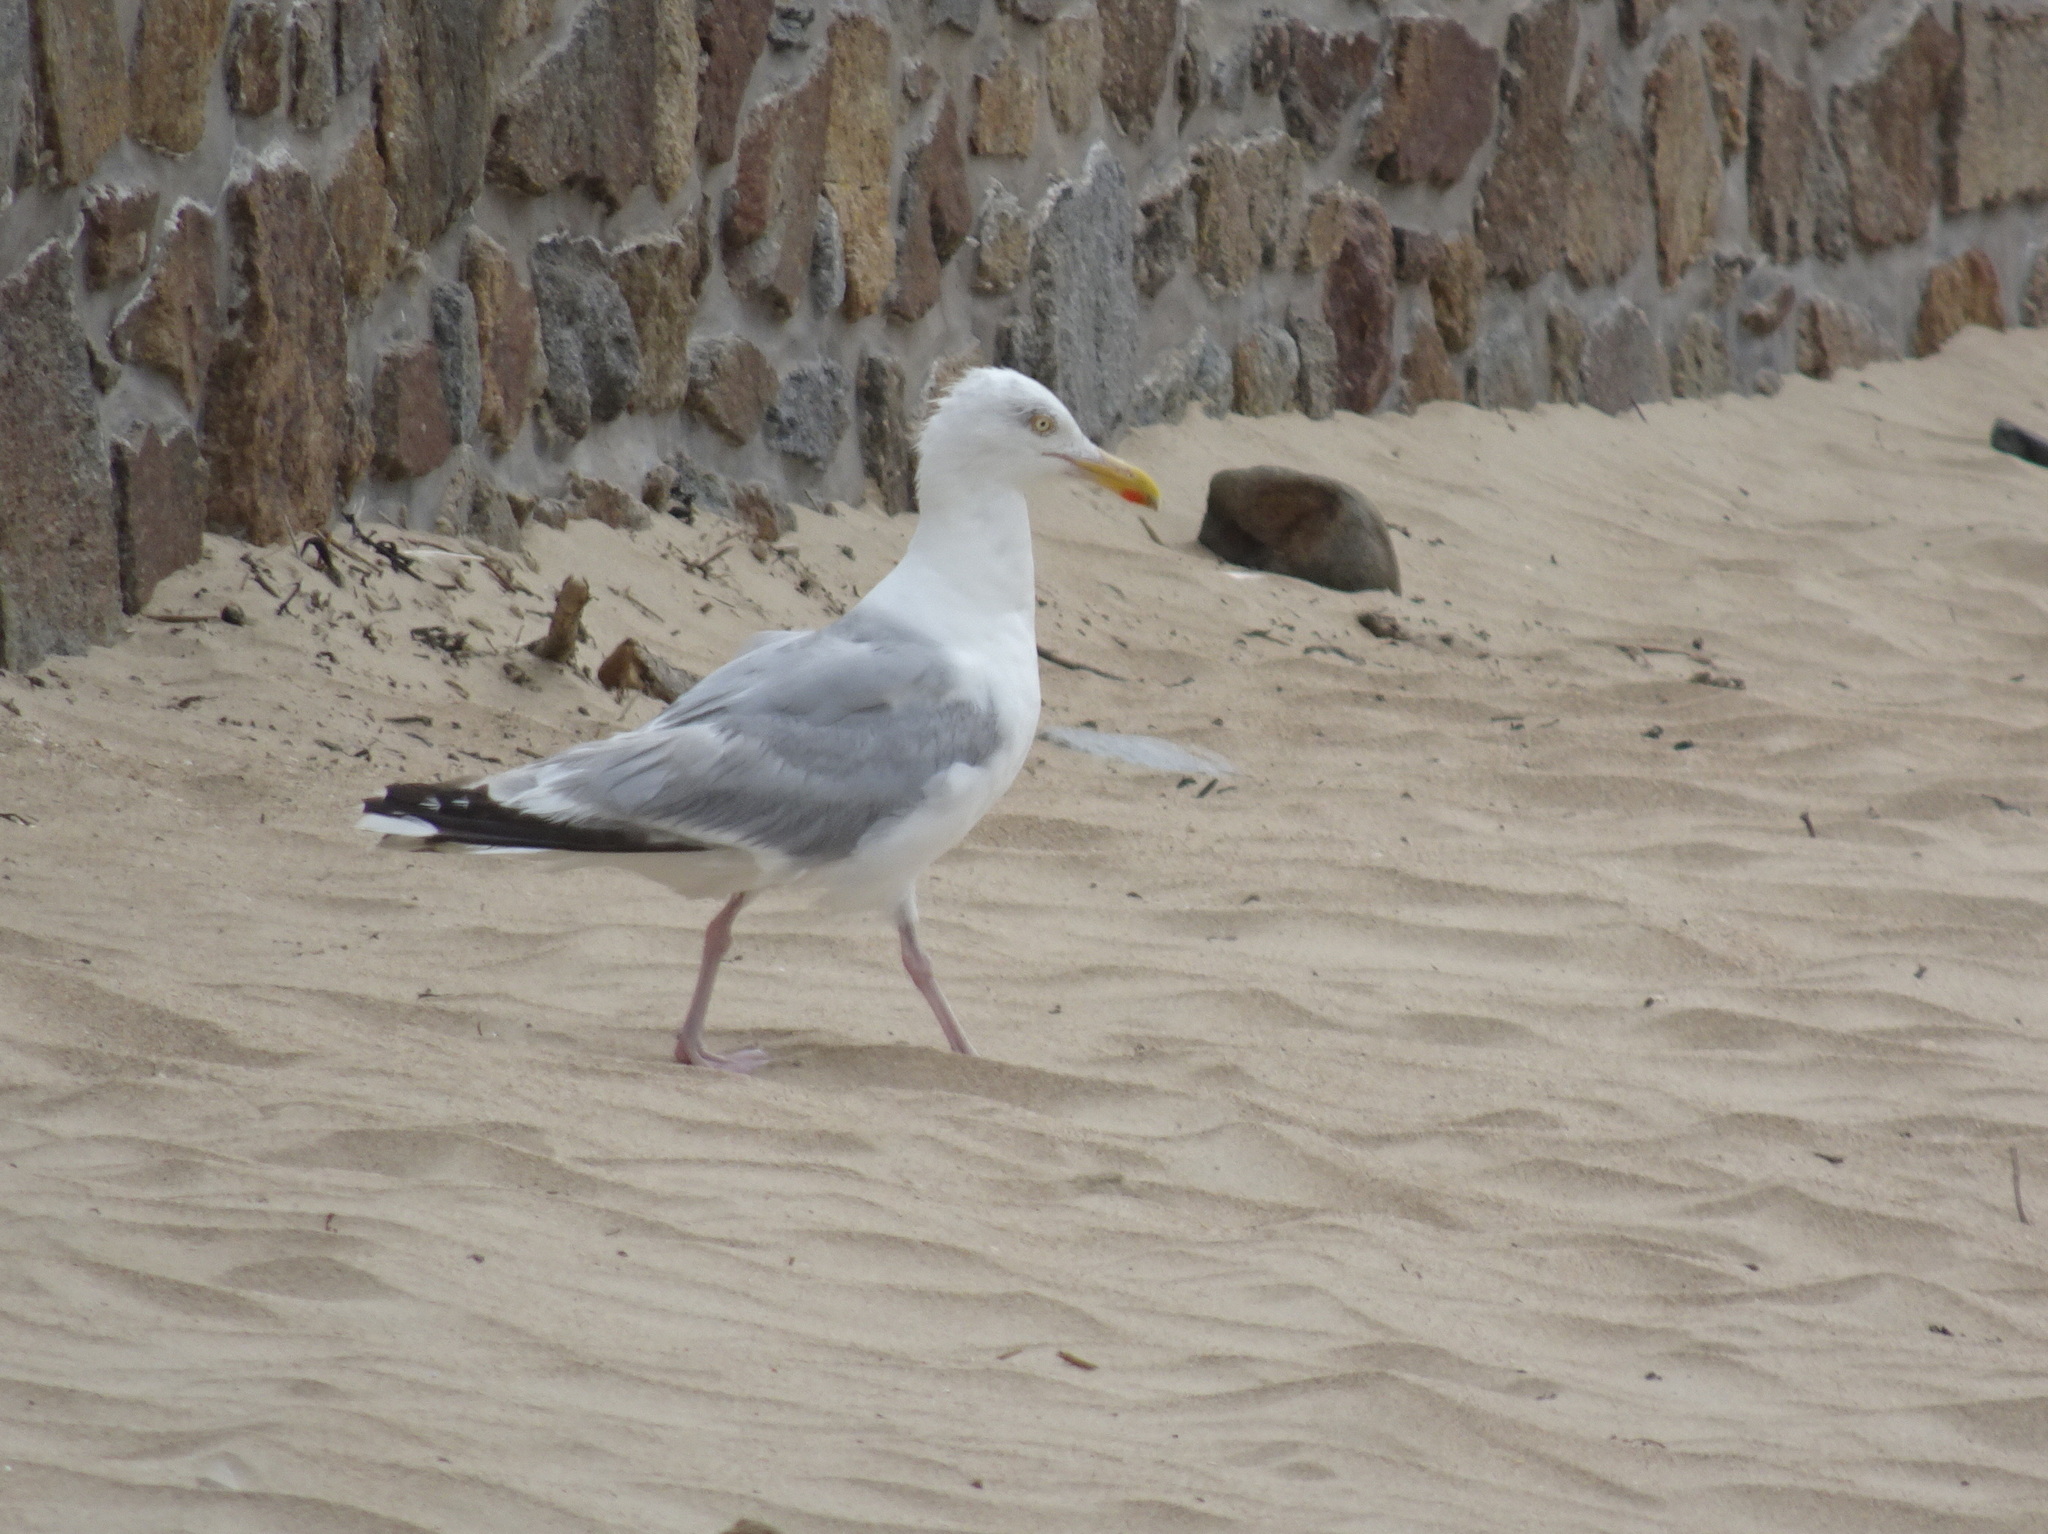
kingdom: Animalia
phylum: Chordata
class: Aves
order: Charadriiformes
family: Laridae
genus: Larus
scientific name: Larus argentatus
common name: Herring gull
